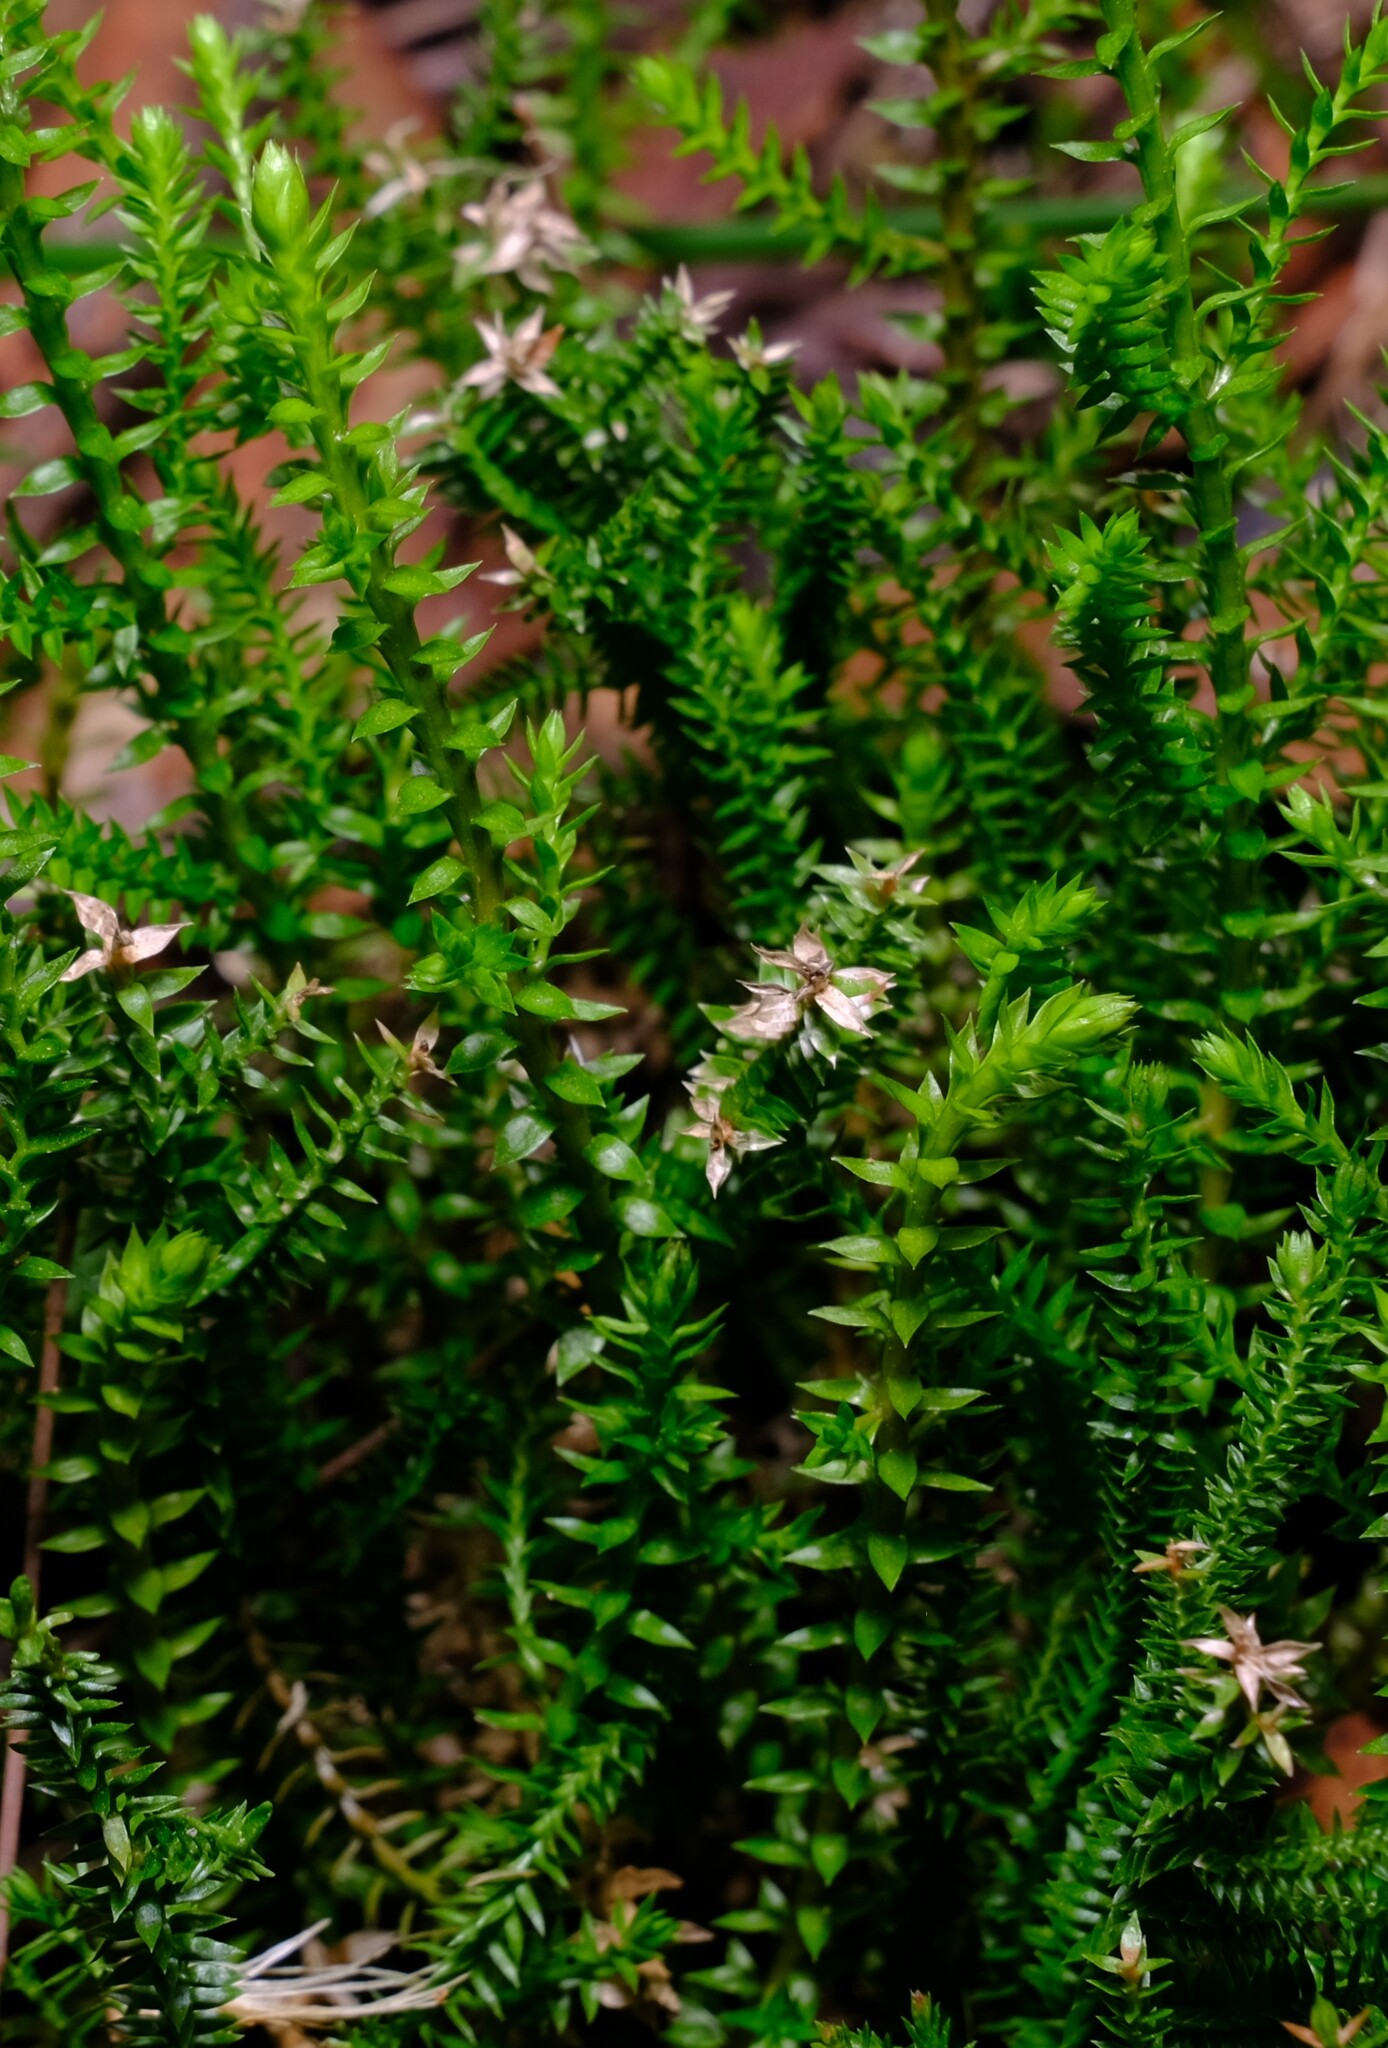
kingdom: Plantae
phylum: Tracheophyta
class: Lycopodiopsida
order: Selaginellales
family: Selaginellaceae
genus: Selaginella
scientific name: Selaginella uliginosa
